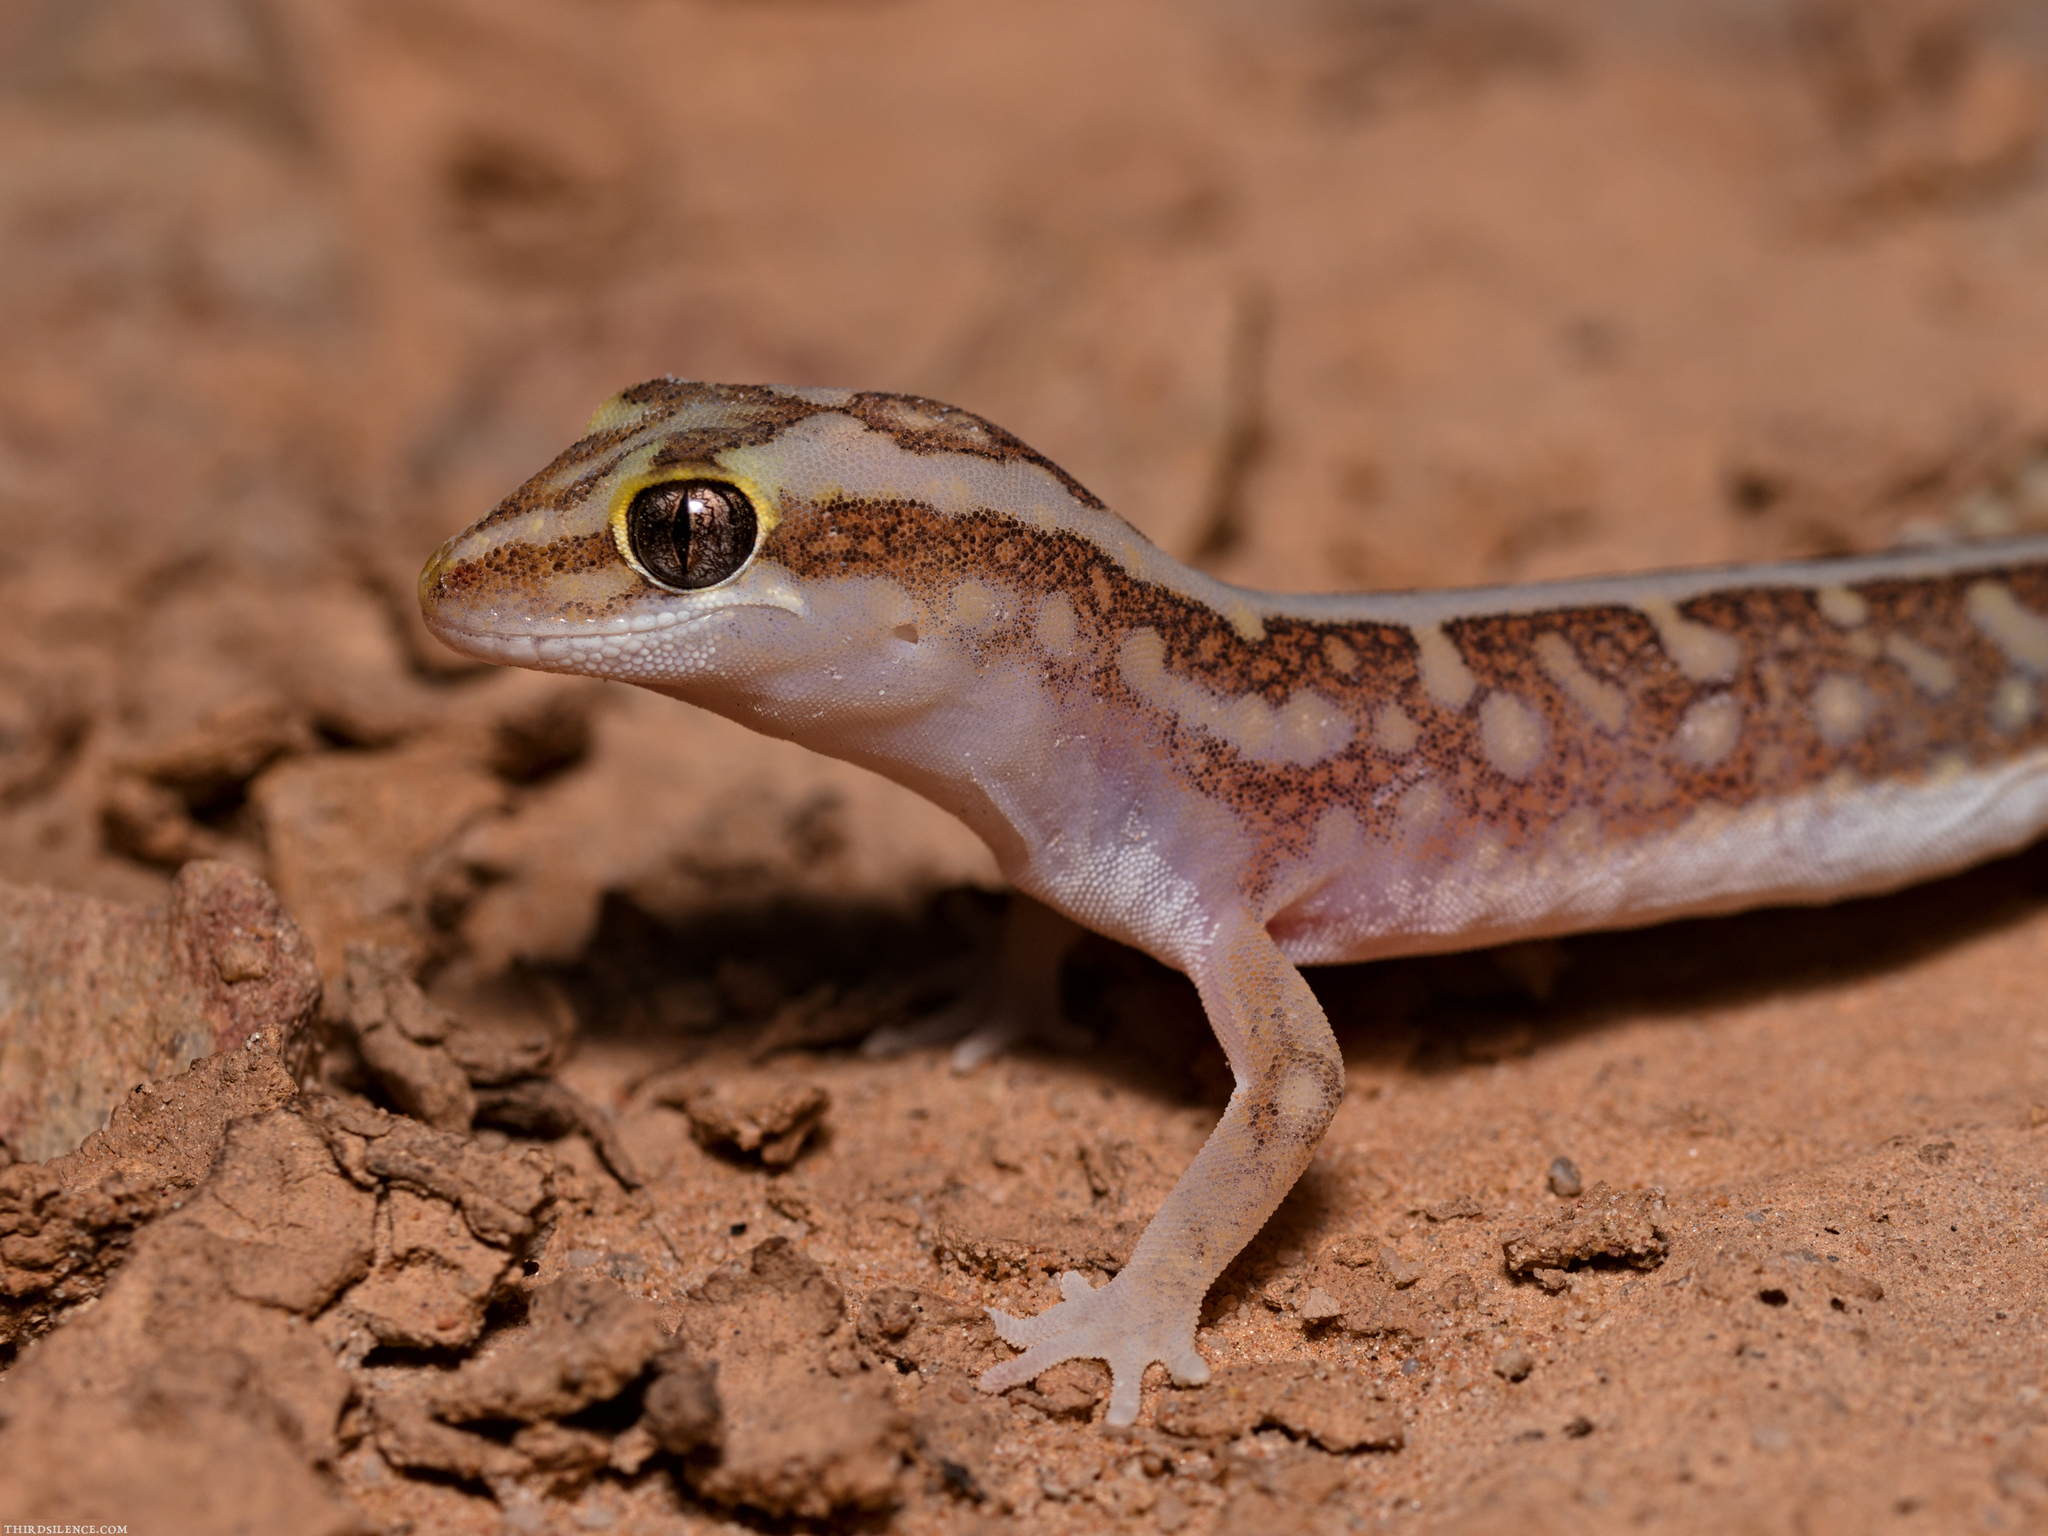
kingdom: Animalia
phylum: Chordata
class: Squamata
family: Diplodactylidae
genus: Lucasium
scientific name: Lucasium stenodactylum
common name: Crowned gecko
